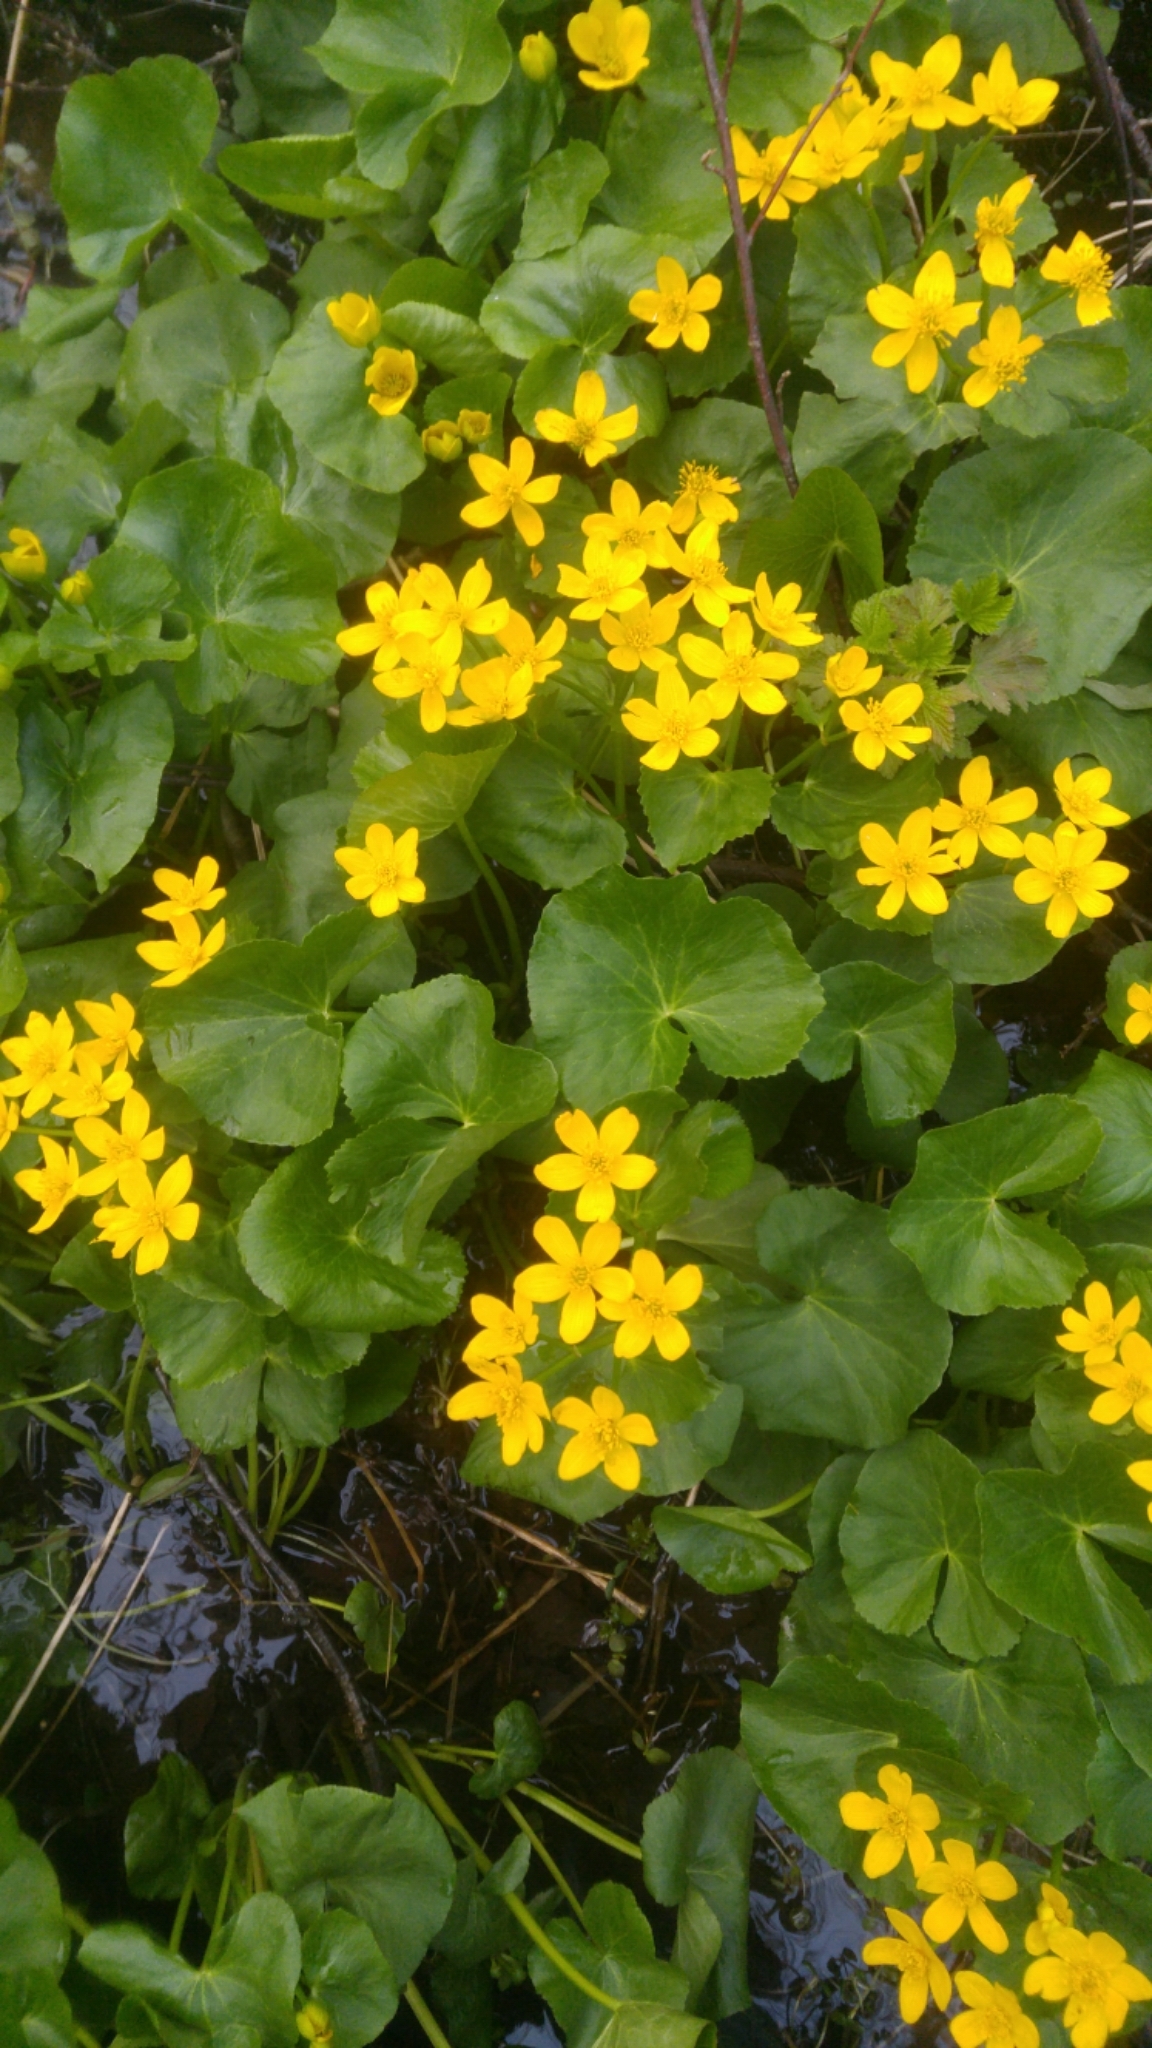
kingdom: Plantae
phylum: Tracheophyta
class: Magnoliopsida
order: Ranunculales
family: Ranunculaceae
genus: Caltha
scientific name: Caltha palustris
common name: Marsh marigold
